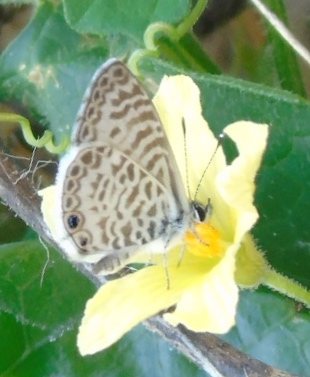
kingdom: Animalia
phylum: Arthropoda
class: Insecta
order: Lepidoptera
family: Lycaenidae
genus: Leptotes
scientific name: Leptotes cassius
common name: Cassius blue
